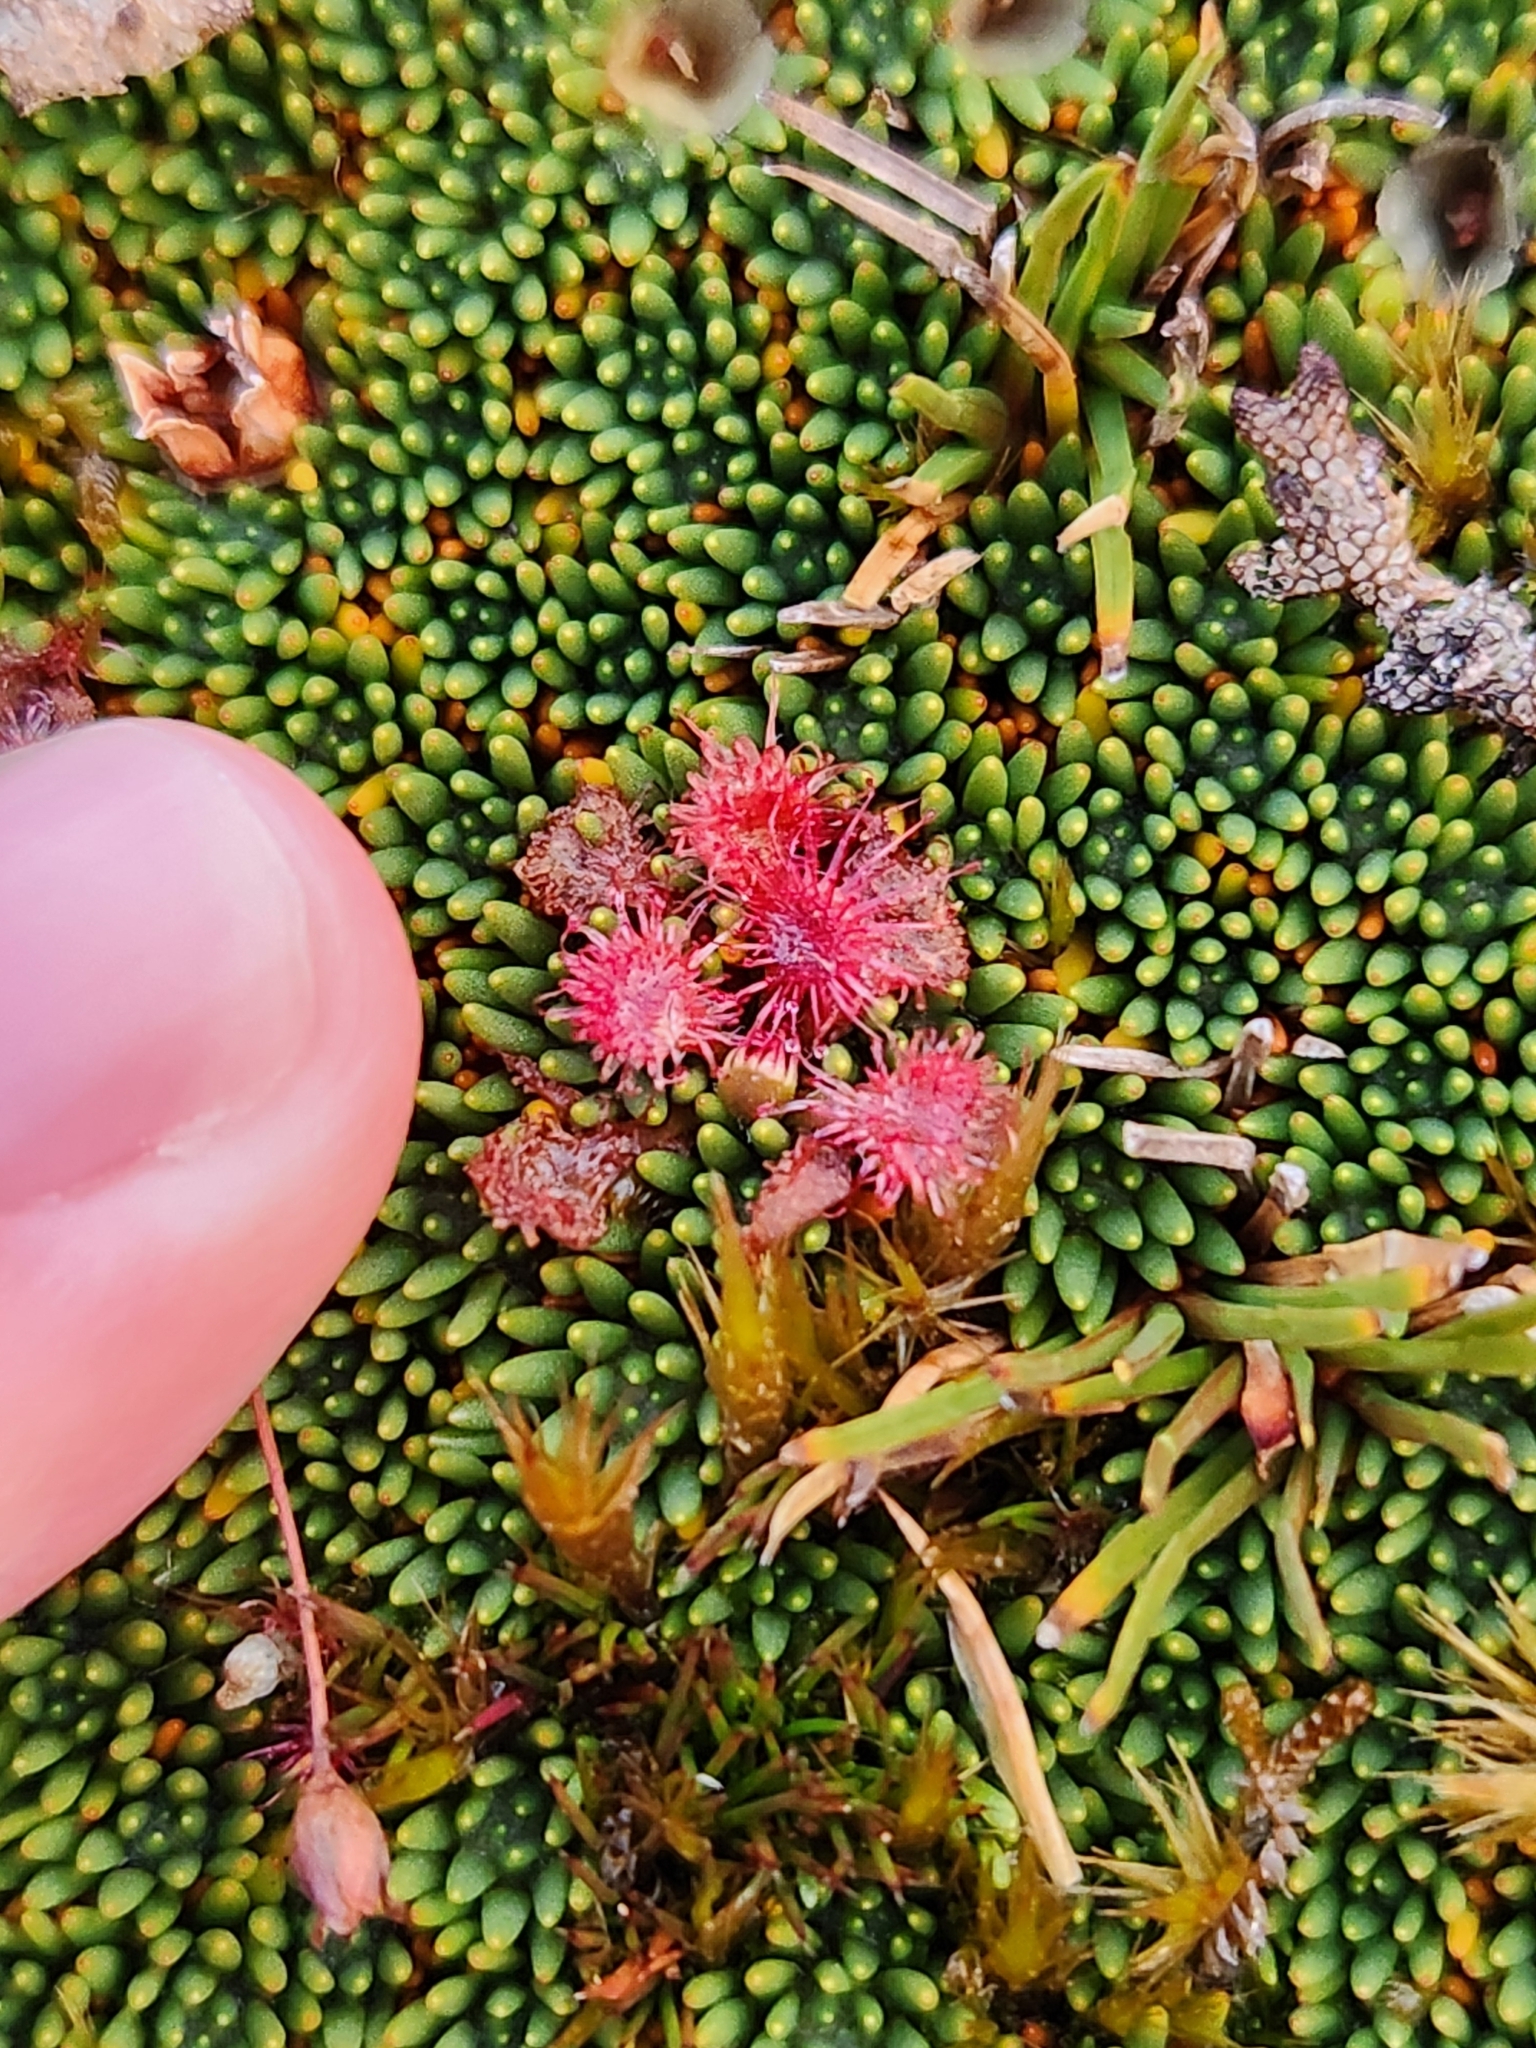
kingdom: Plantae
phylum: Tracheophyta
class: Magnoliopsida
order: Caryophyllales
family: Droseraceae
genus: Drosera
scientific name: Drosera spatulata
